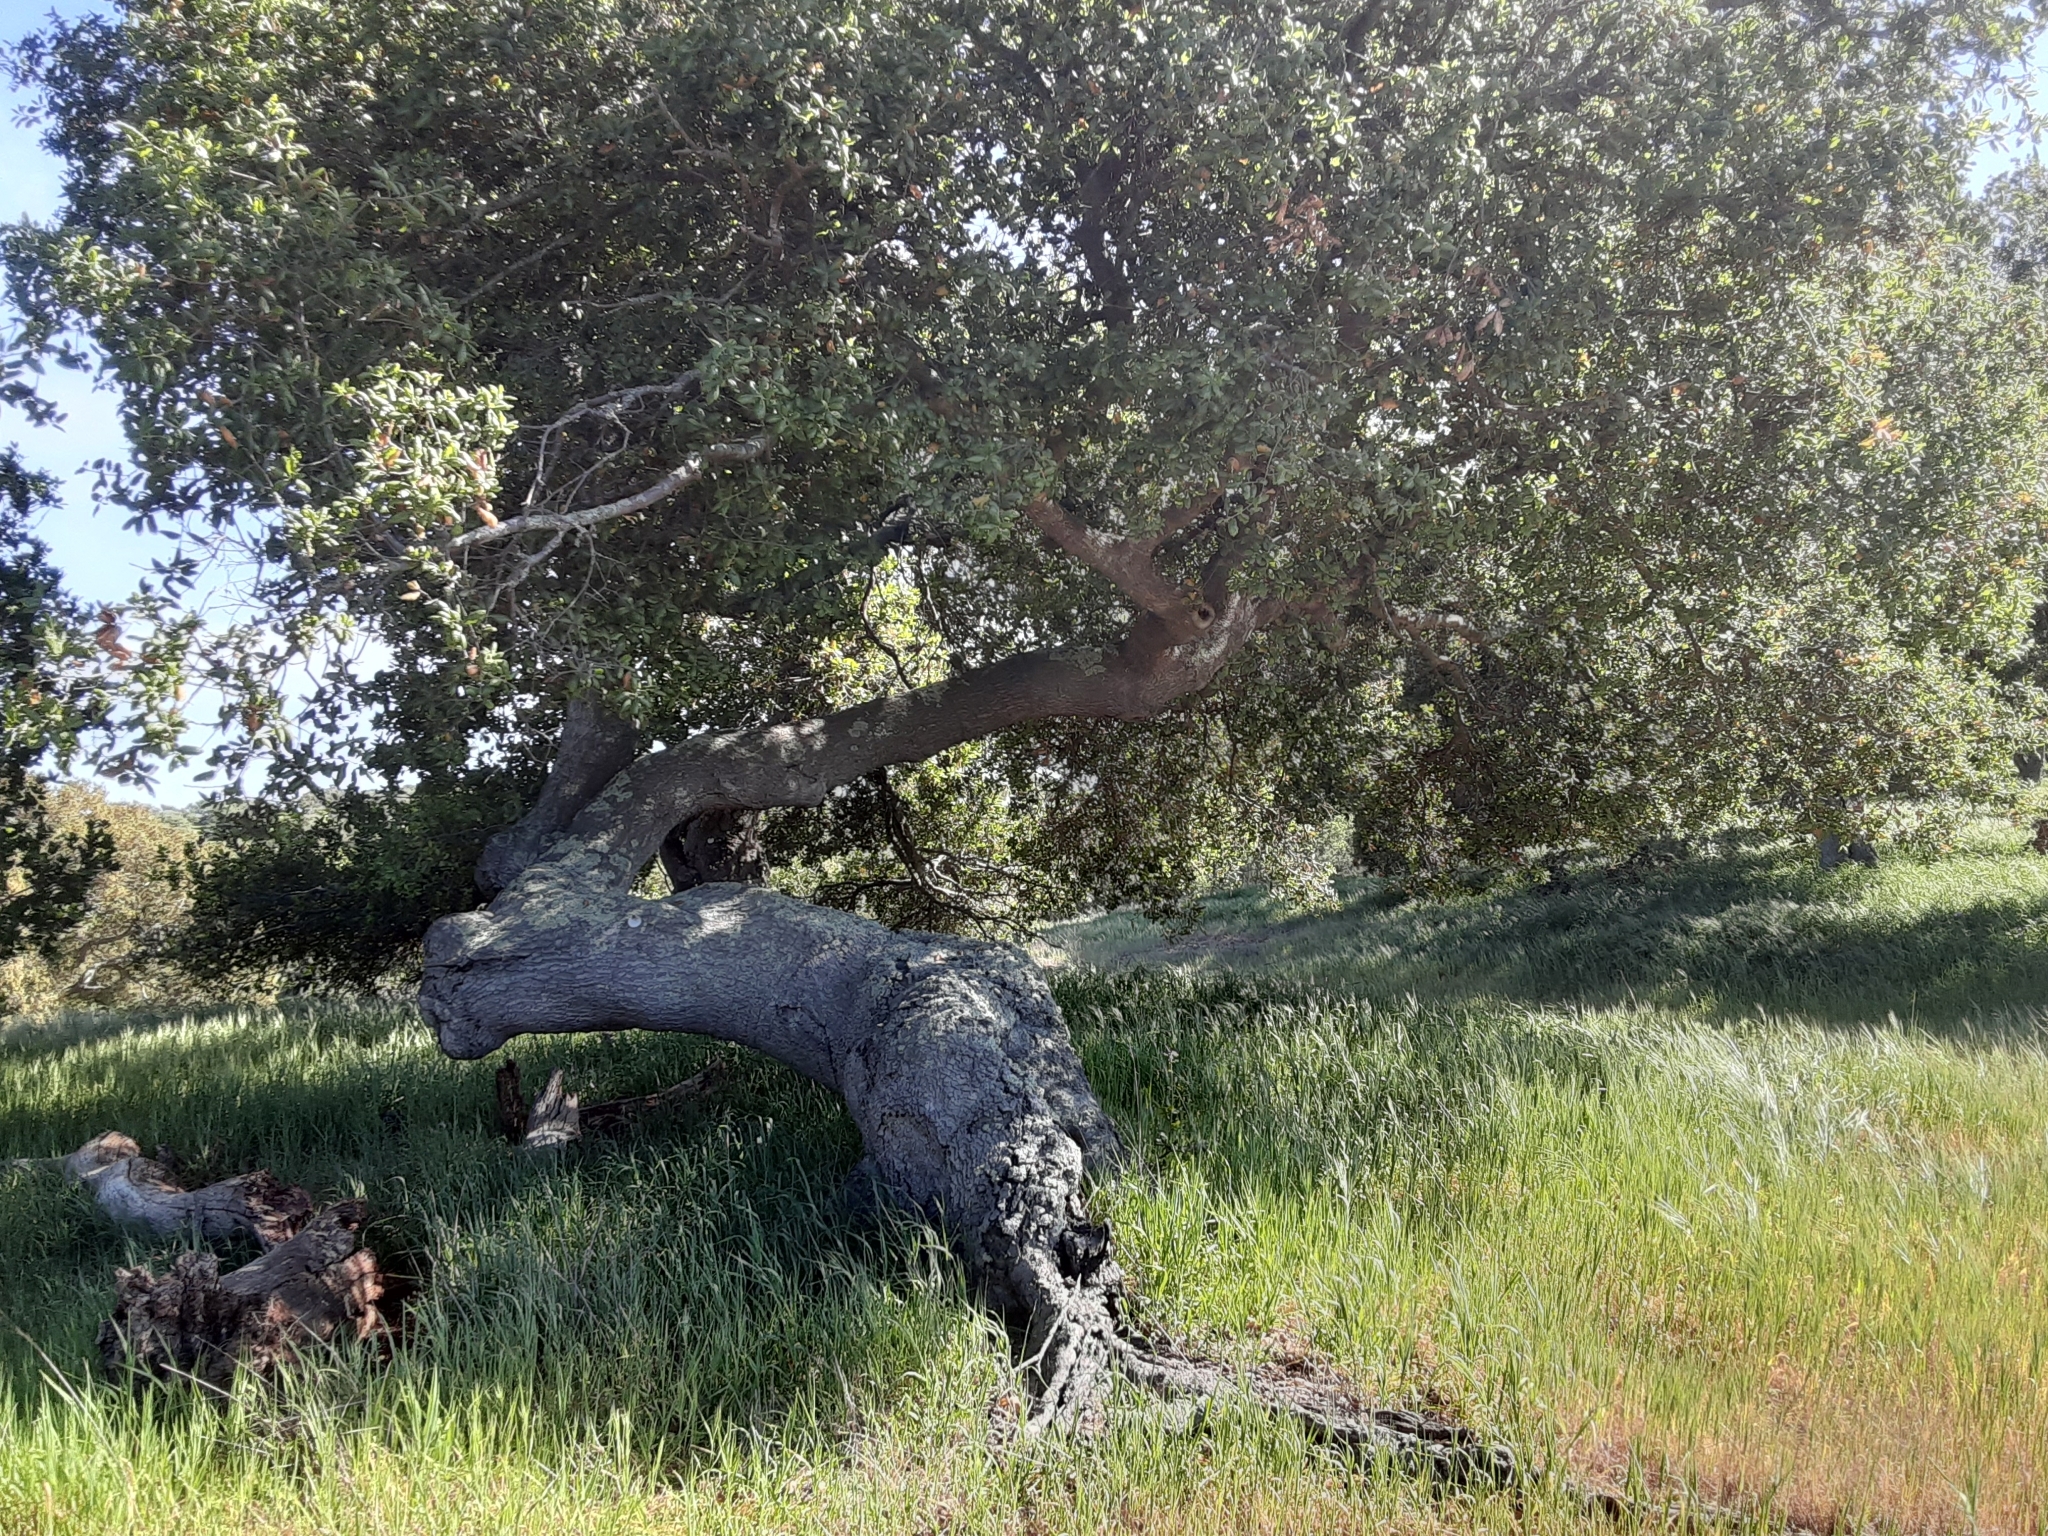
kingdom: Plantae
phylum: Tracheophyta
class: Magnoliopsida
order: Fagales
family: Fagaceae
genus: Quercus
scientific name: Quercus agrifolia
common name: California live oak
